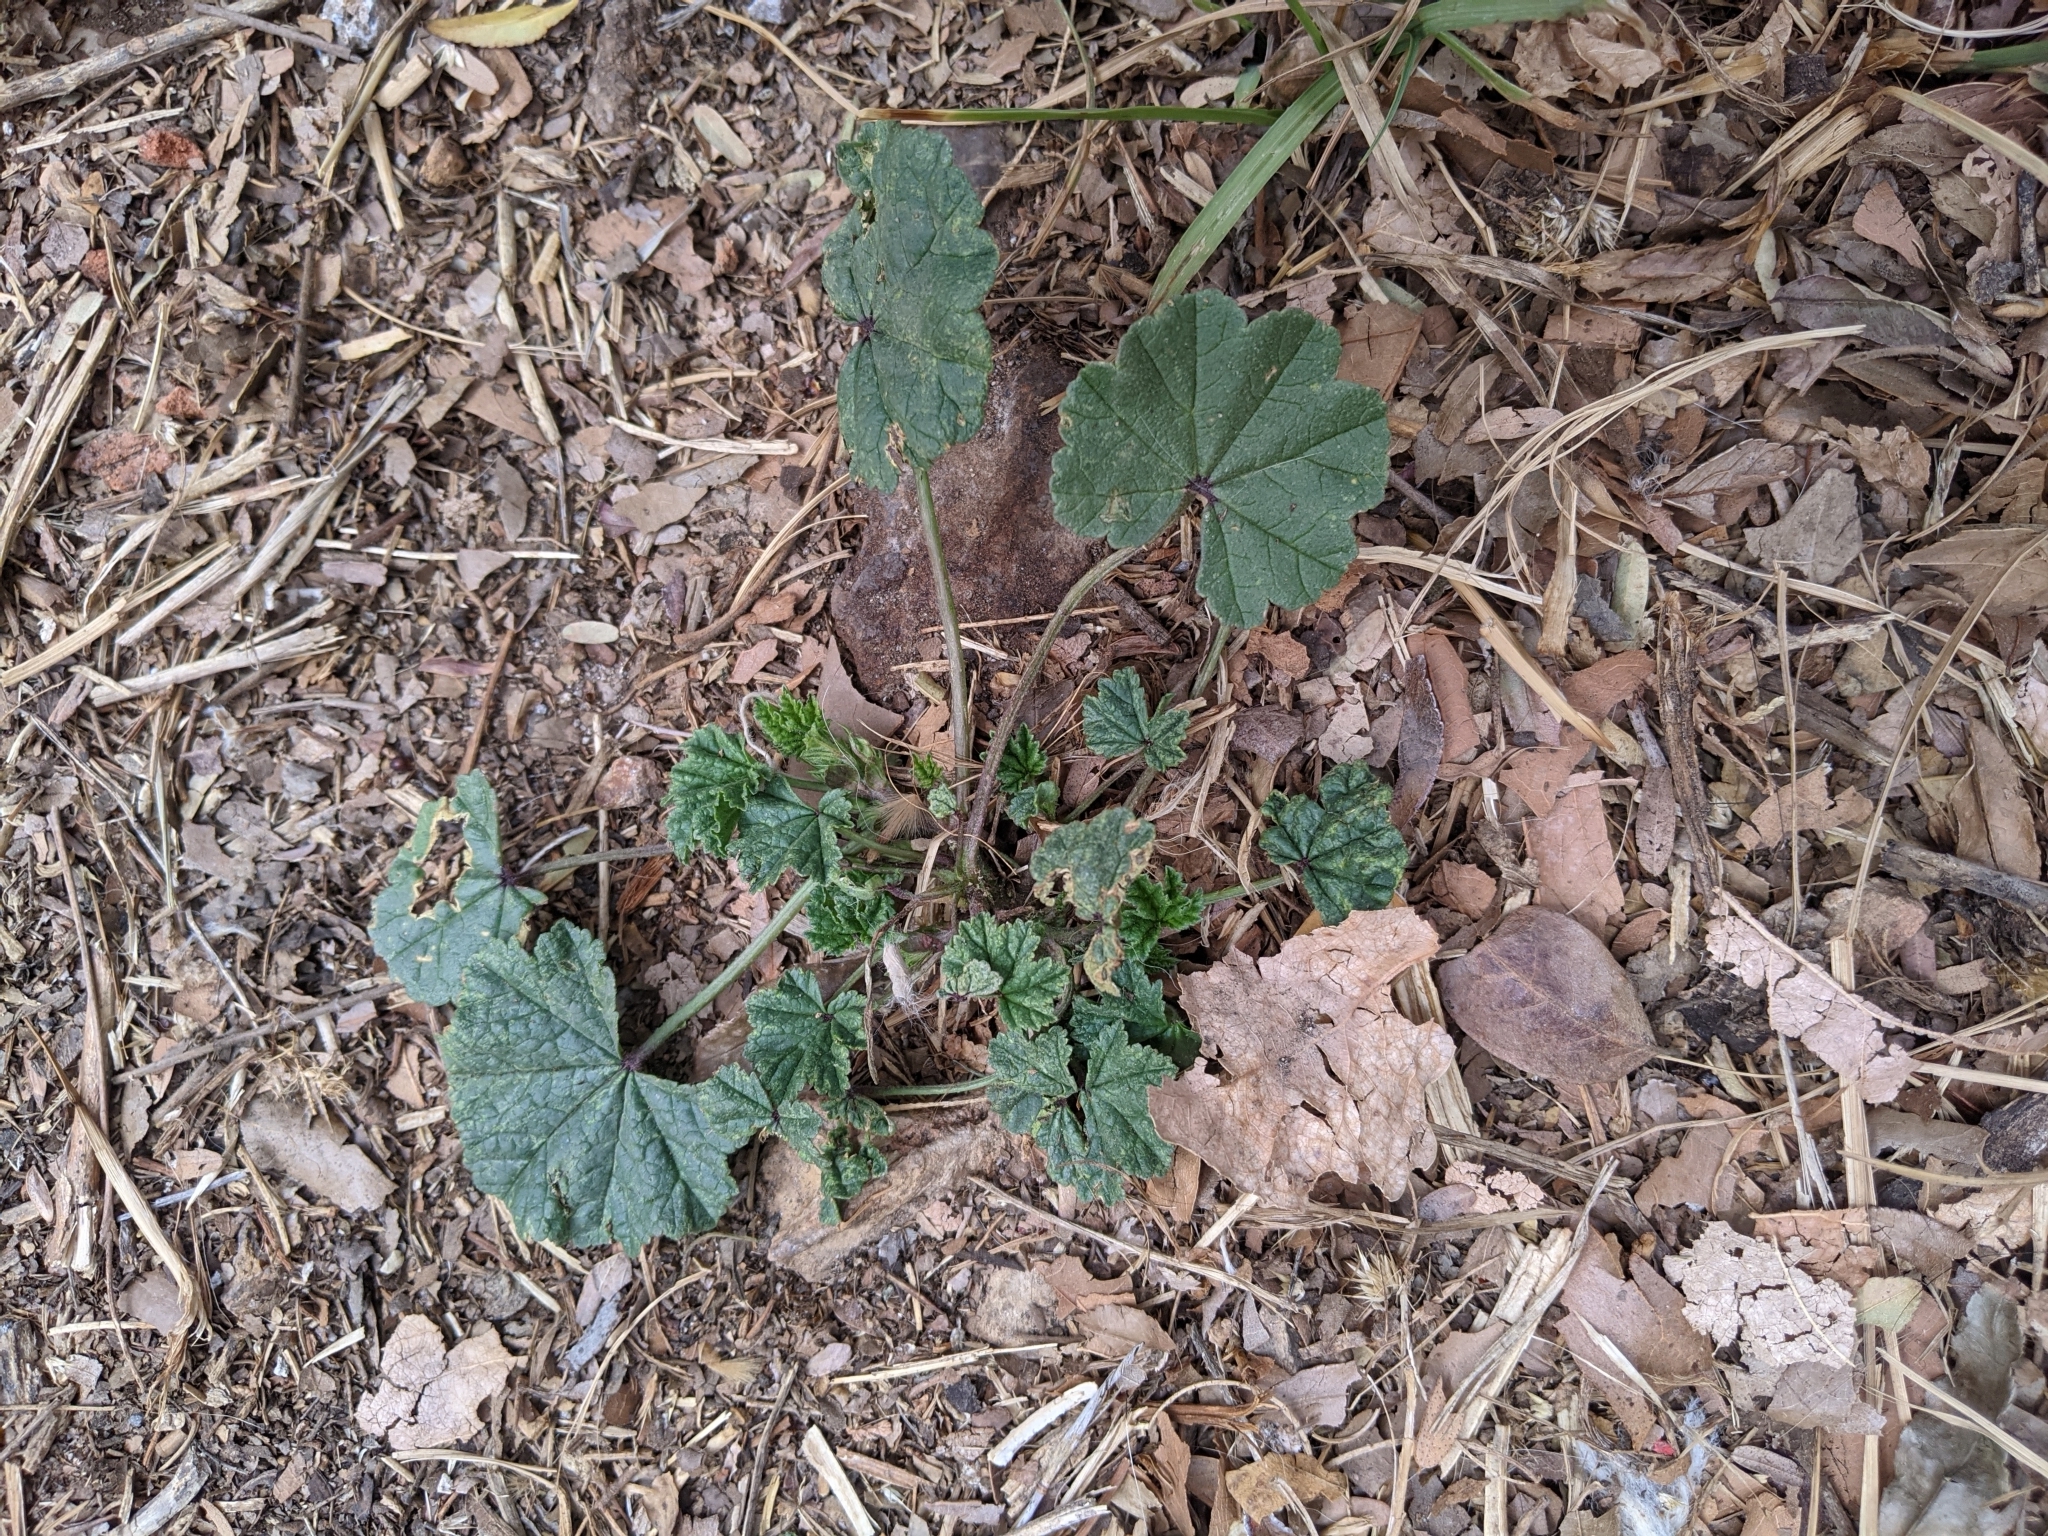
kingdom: Plantae
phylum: Tracheophyta
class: Magnoliopsida
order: Malvales
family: Malvaceae
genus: Malva
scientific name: Malva parviflora
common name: Least mallow
